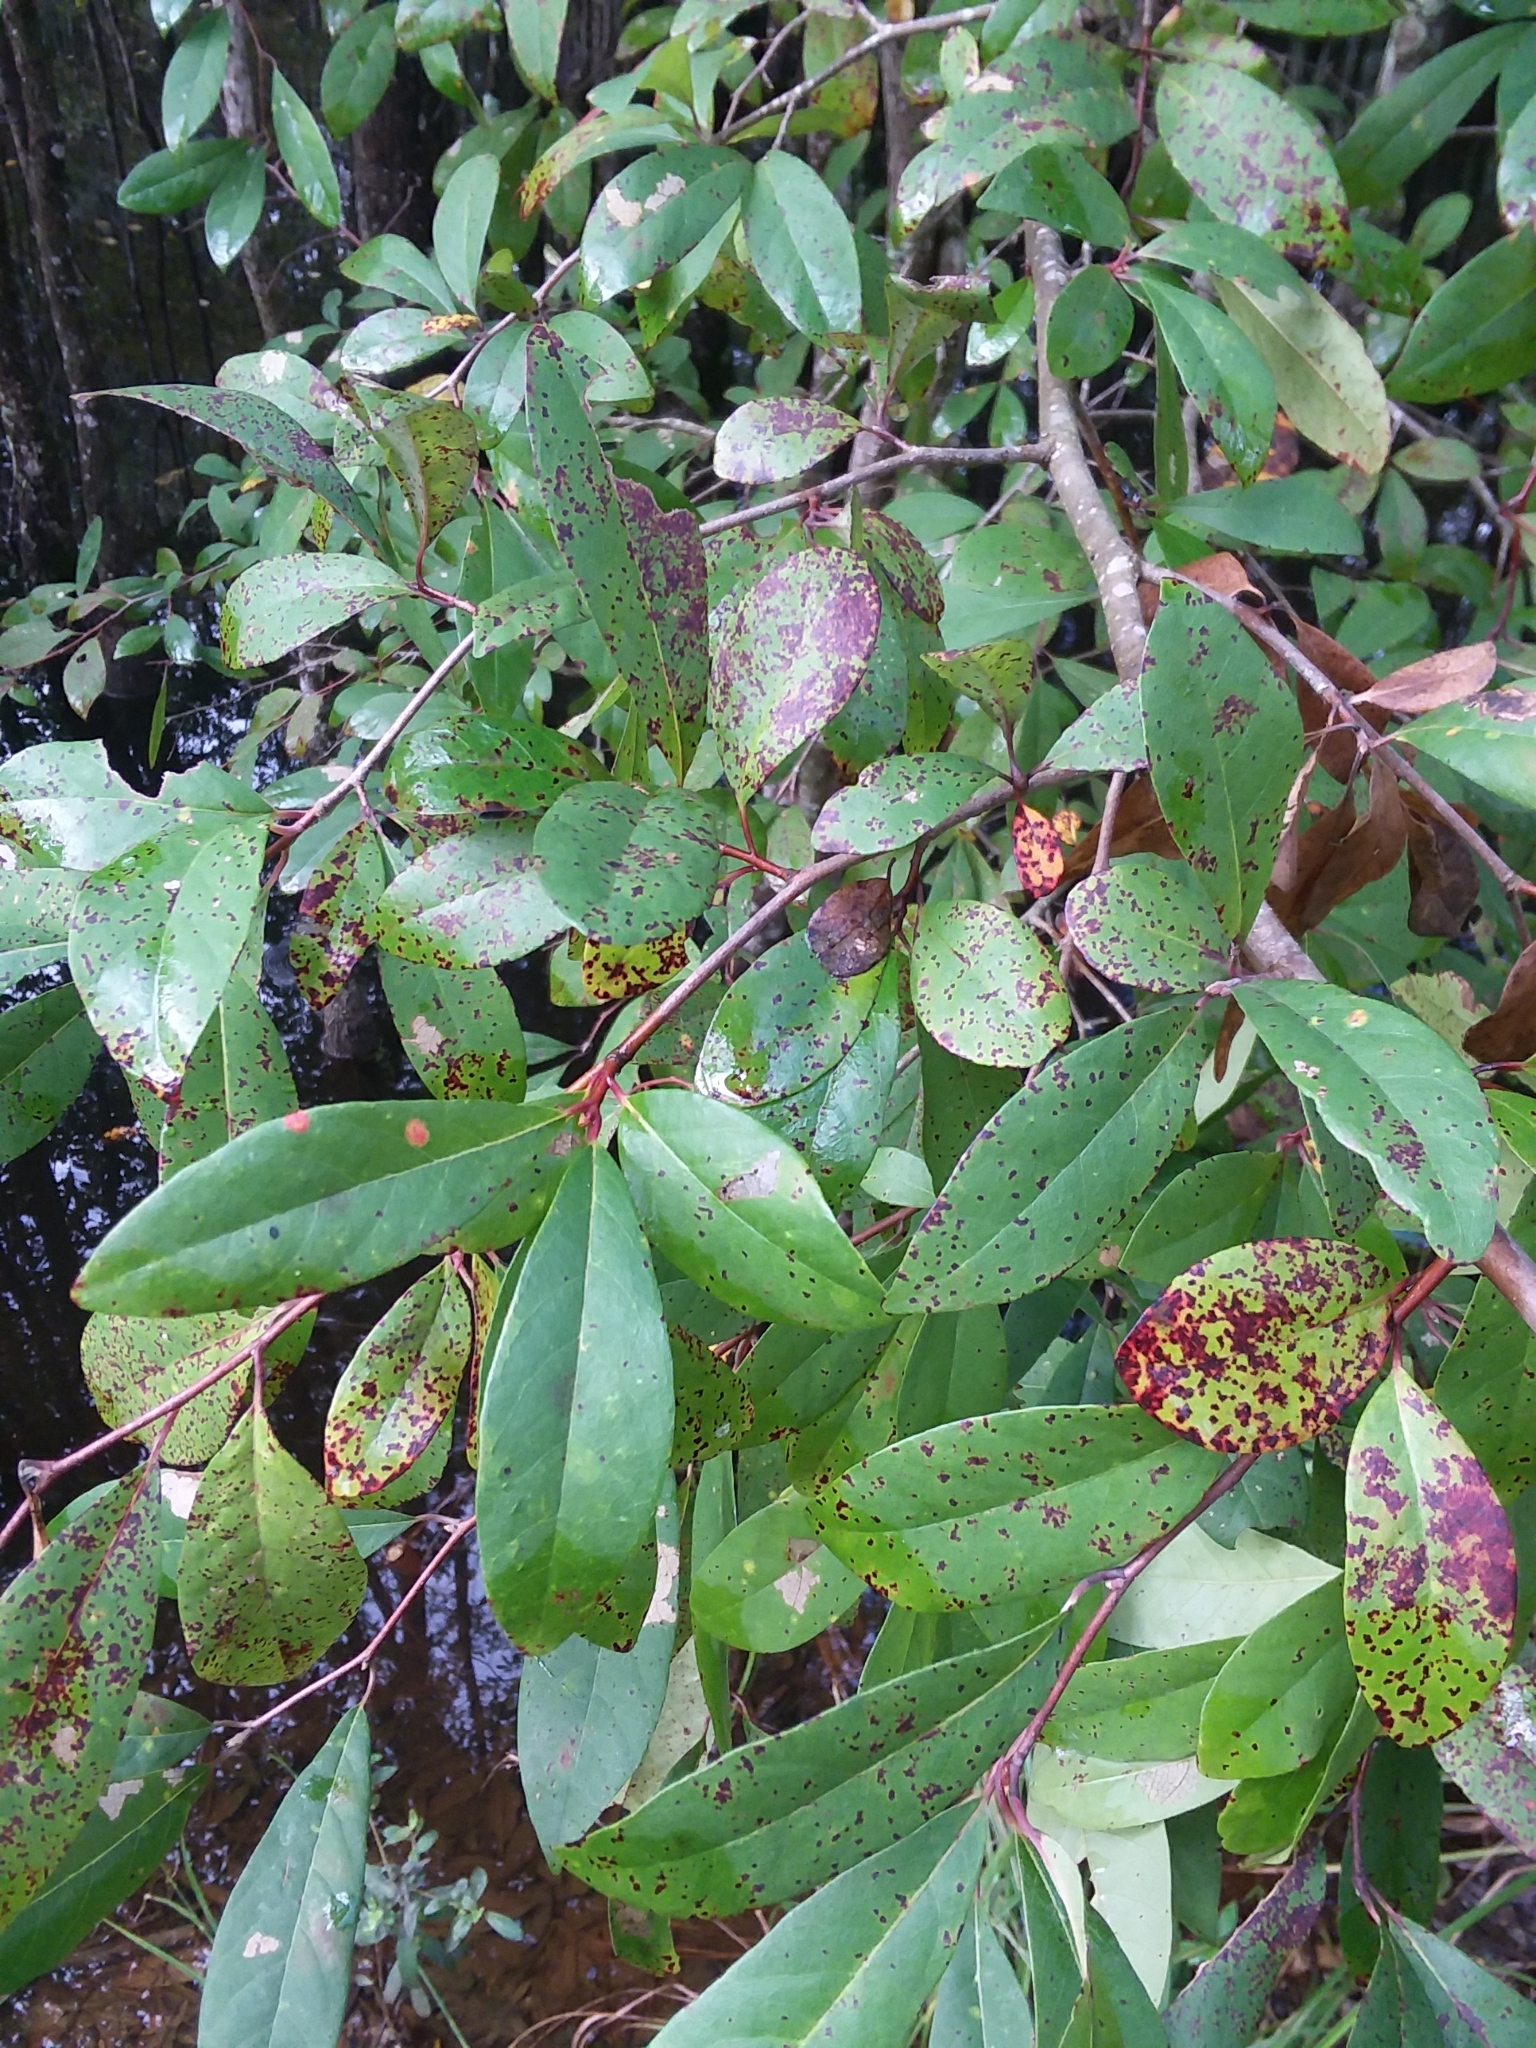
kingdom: Plantae
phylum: Tracheophyta
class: Magnoliopsida
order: Cornales
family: Nyssaceae
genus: Nyssa
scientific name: Nyssa biflora
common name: Swamp blackgum
